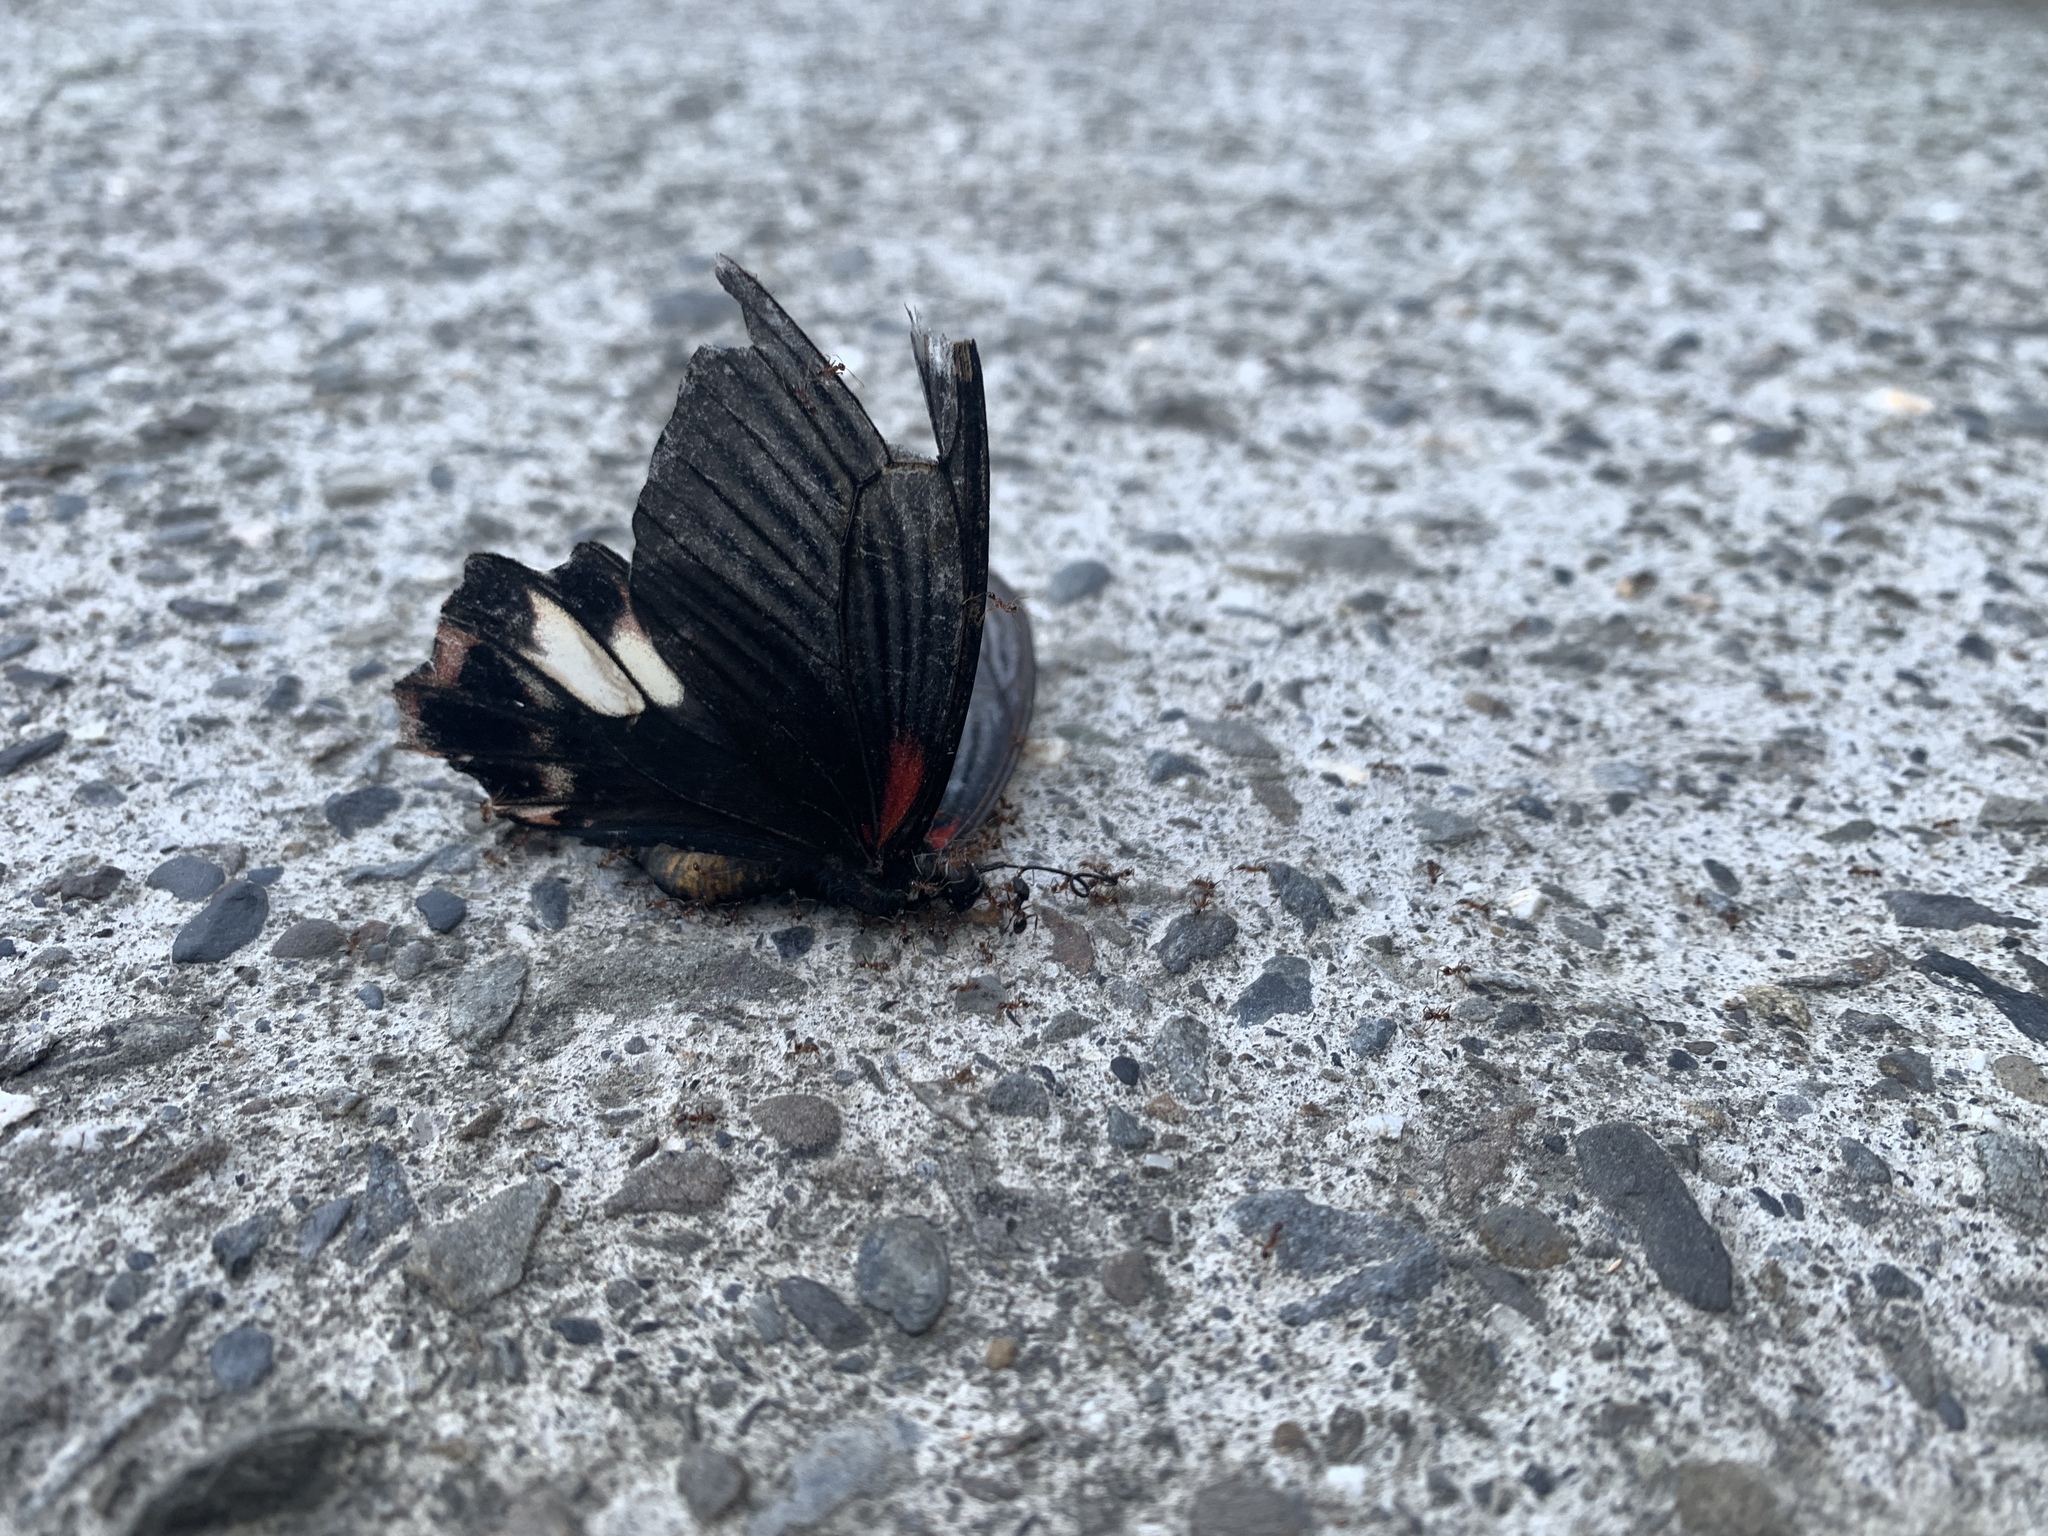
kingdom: Animalia
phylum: Arthropoda
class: Insecta
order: Lepidoptera
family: Papilionidae
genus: Papilio
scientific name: Papilio thaiwanus
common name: Formosan swallowtail
